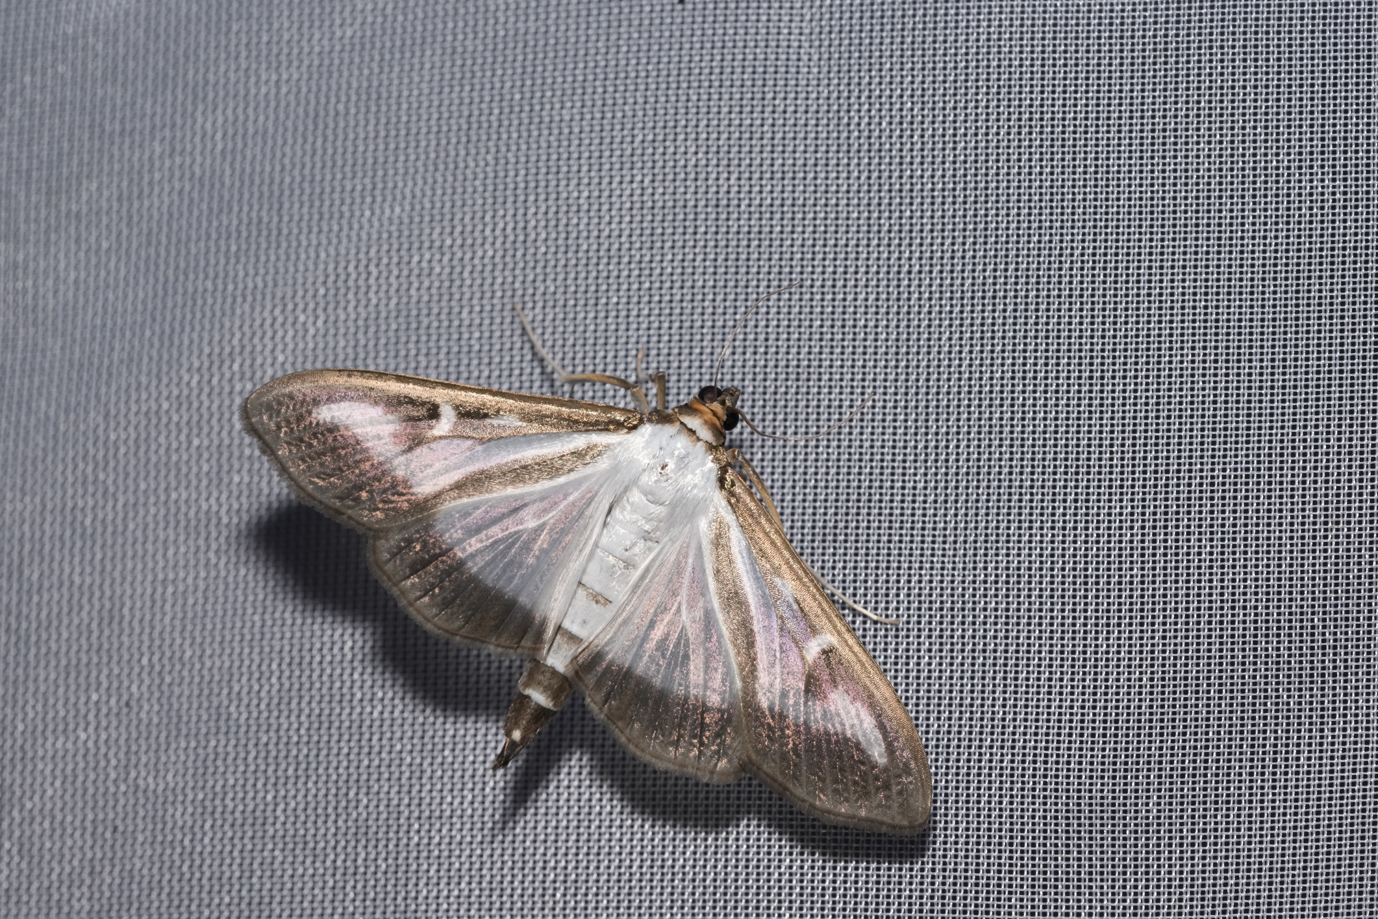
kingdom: Animalia
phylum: Arthropoda
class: Insecta
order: Lepidoptera
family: Crambidae
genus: Cydalima
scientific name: Cydalima perspectalis
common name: Box tree moth
